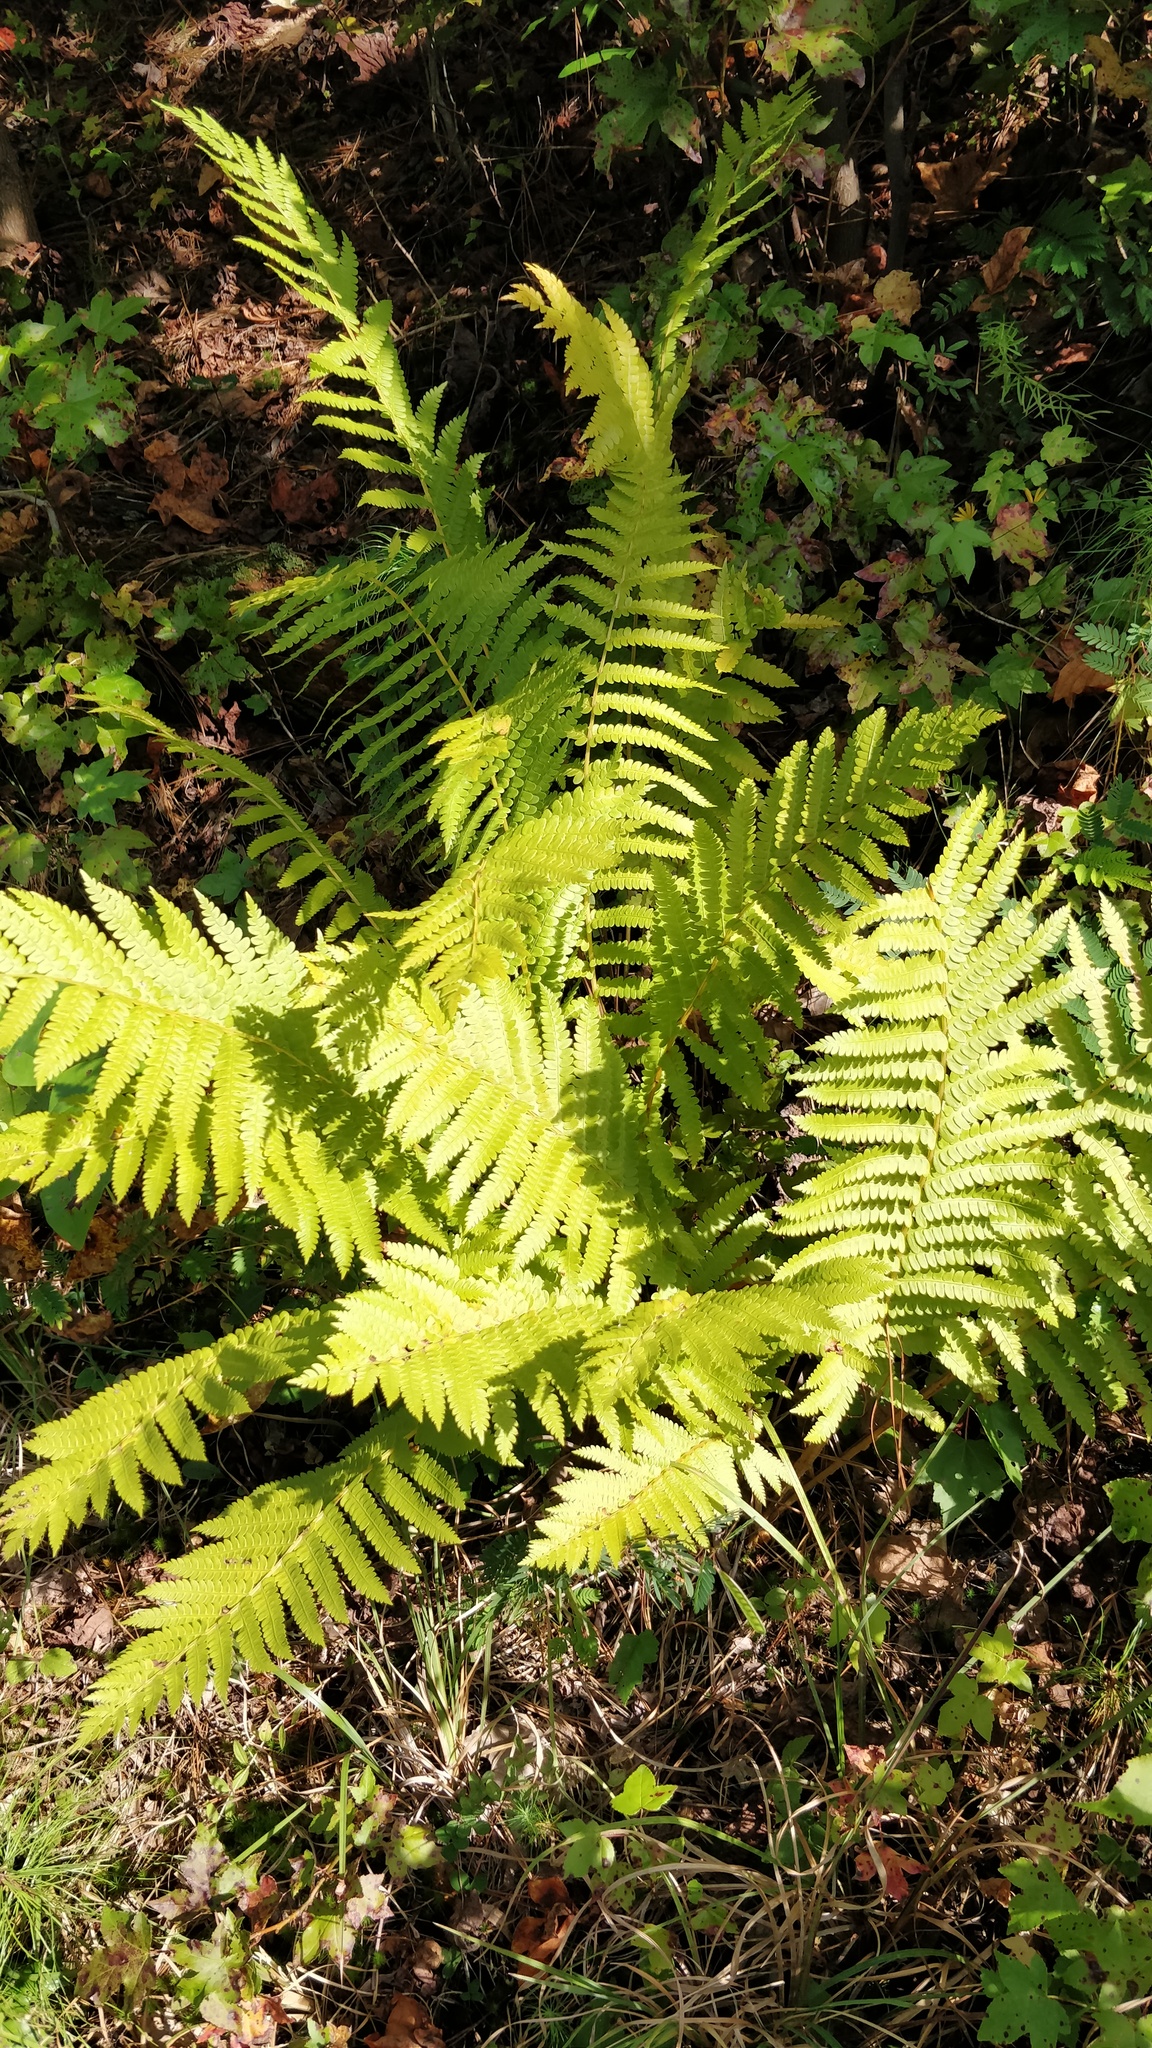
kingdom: Plantae
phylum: Tracheophyta
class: Polypodiopsida
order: Osmundales
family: Osmundaceae
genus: Osmundastrum
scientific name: Osmundastrum cinnamomeum
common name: Cinnamon fern
